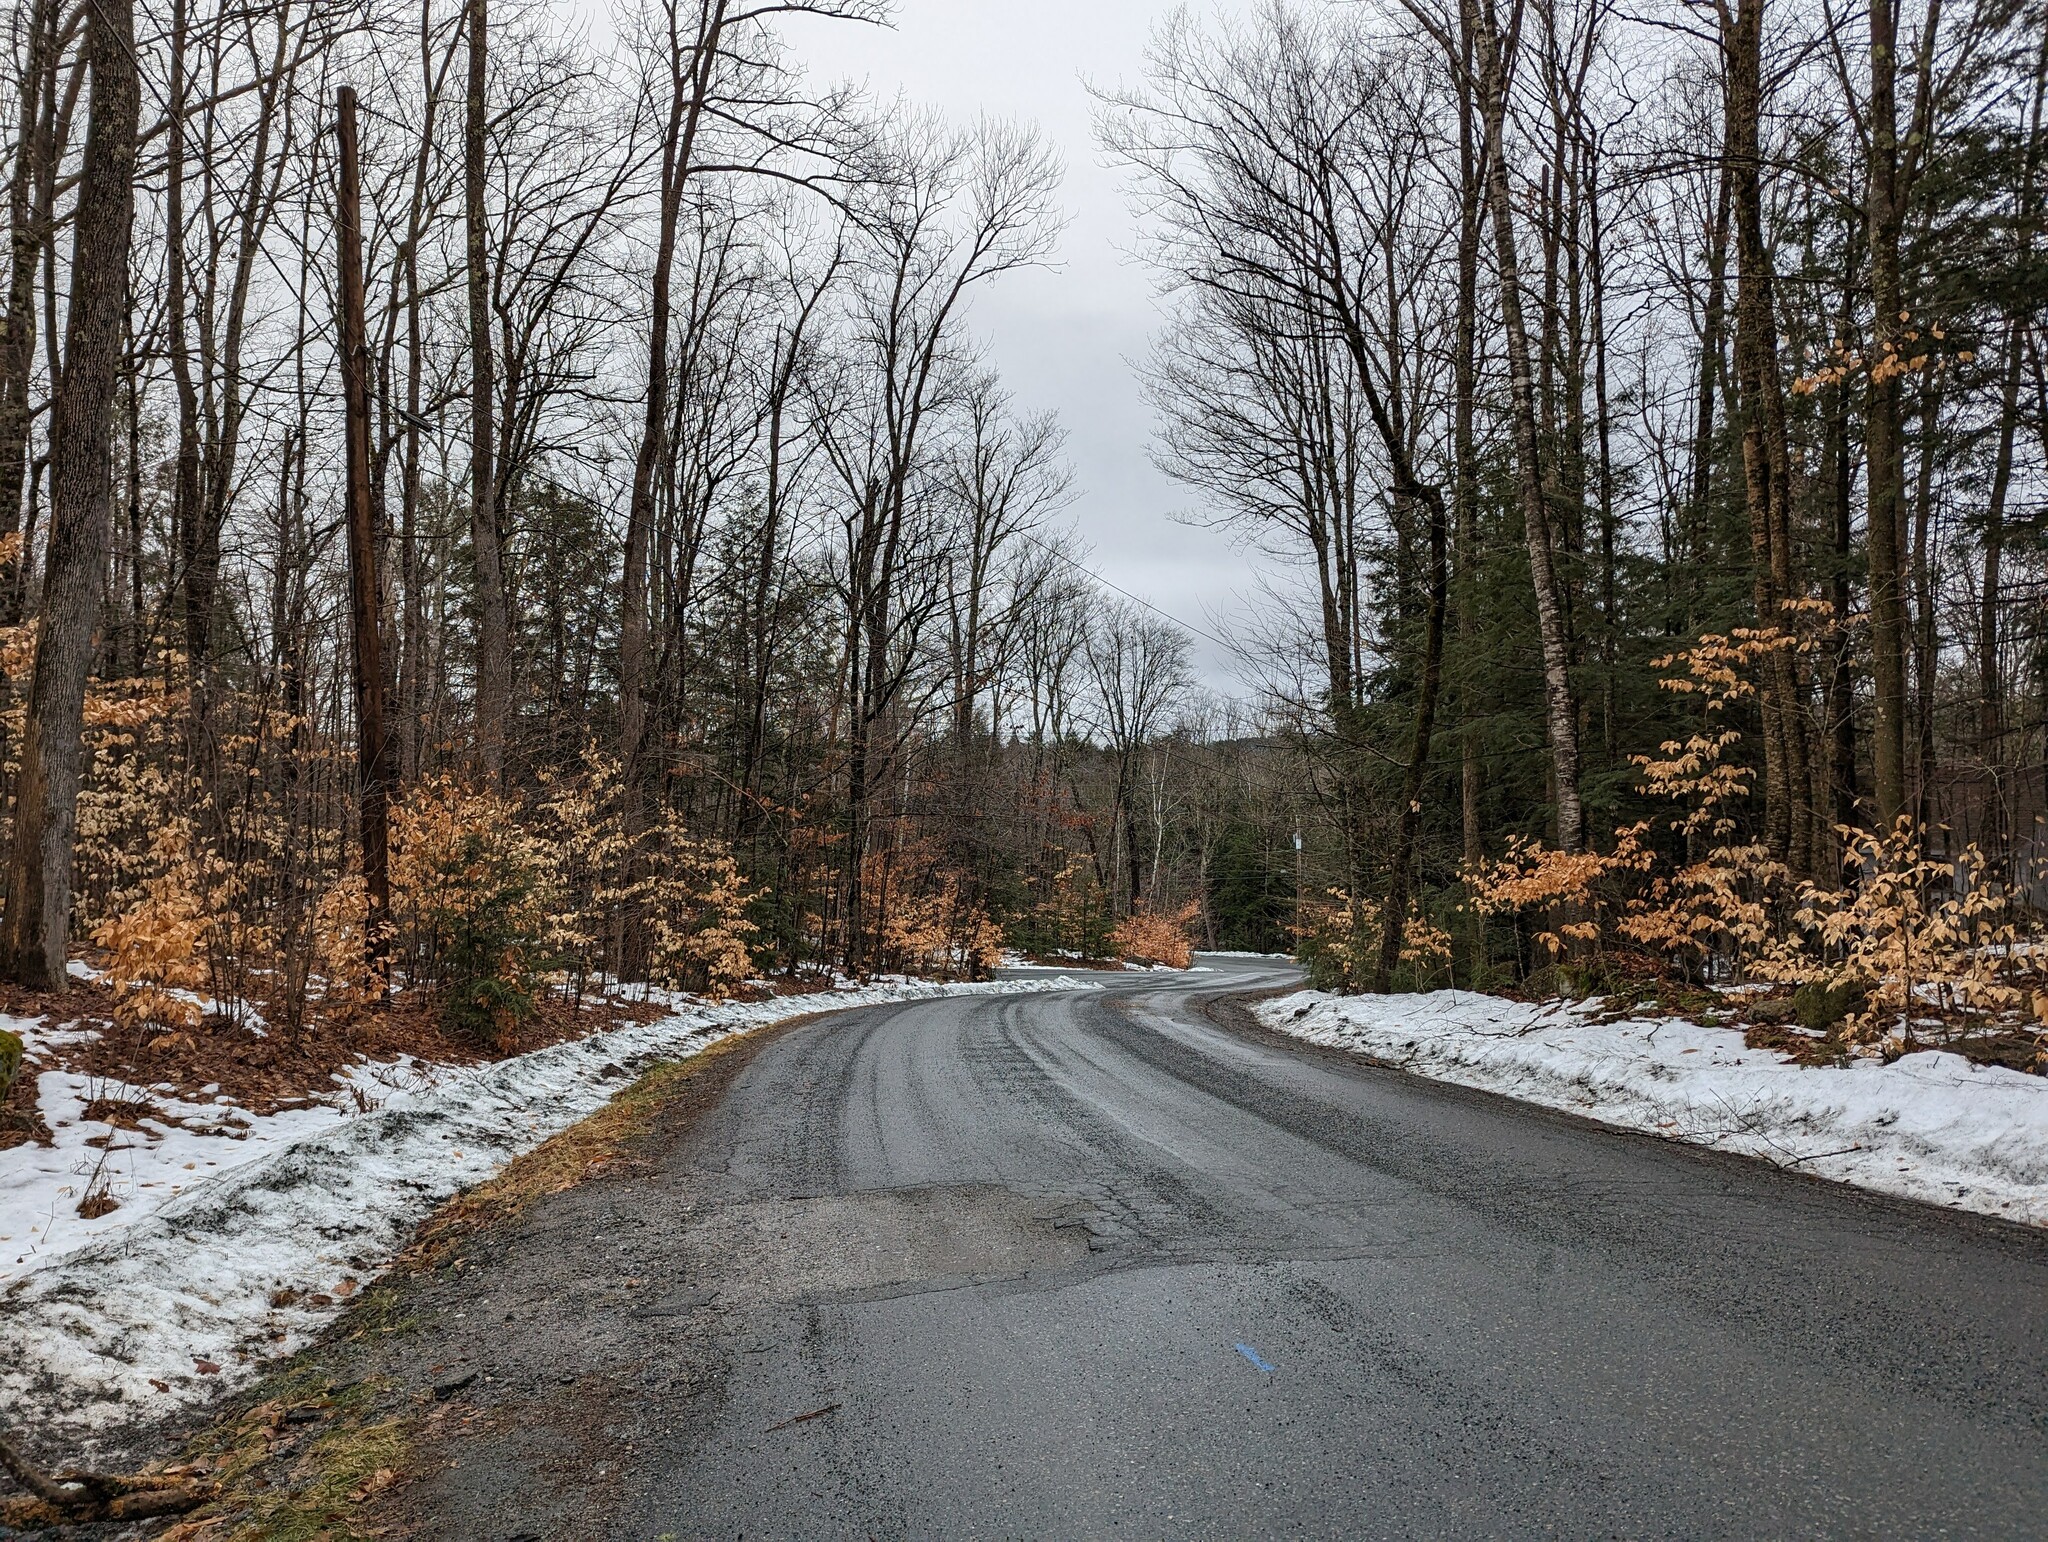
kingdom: Plantae
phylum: Tracheophyta
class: Magnoliopsida
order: Fagales
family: Fagaceae
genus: Fagus
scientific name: Fagus grandifolia
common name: American beech
